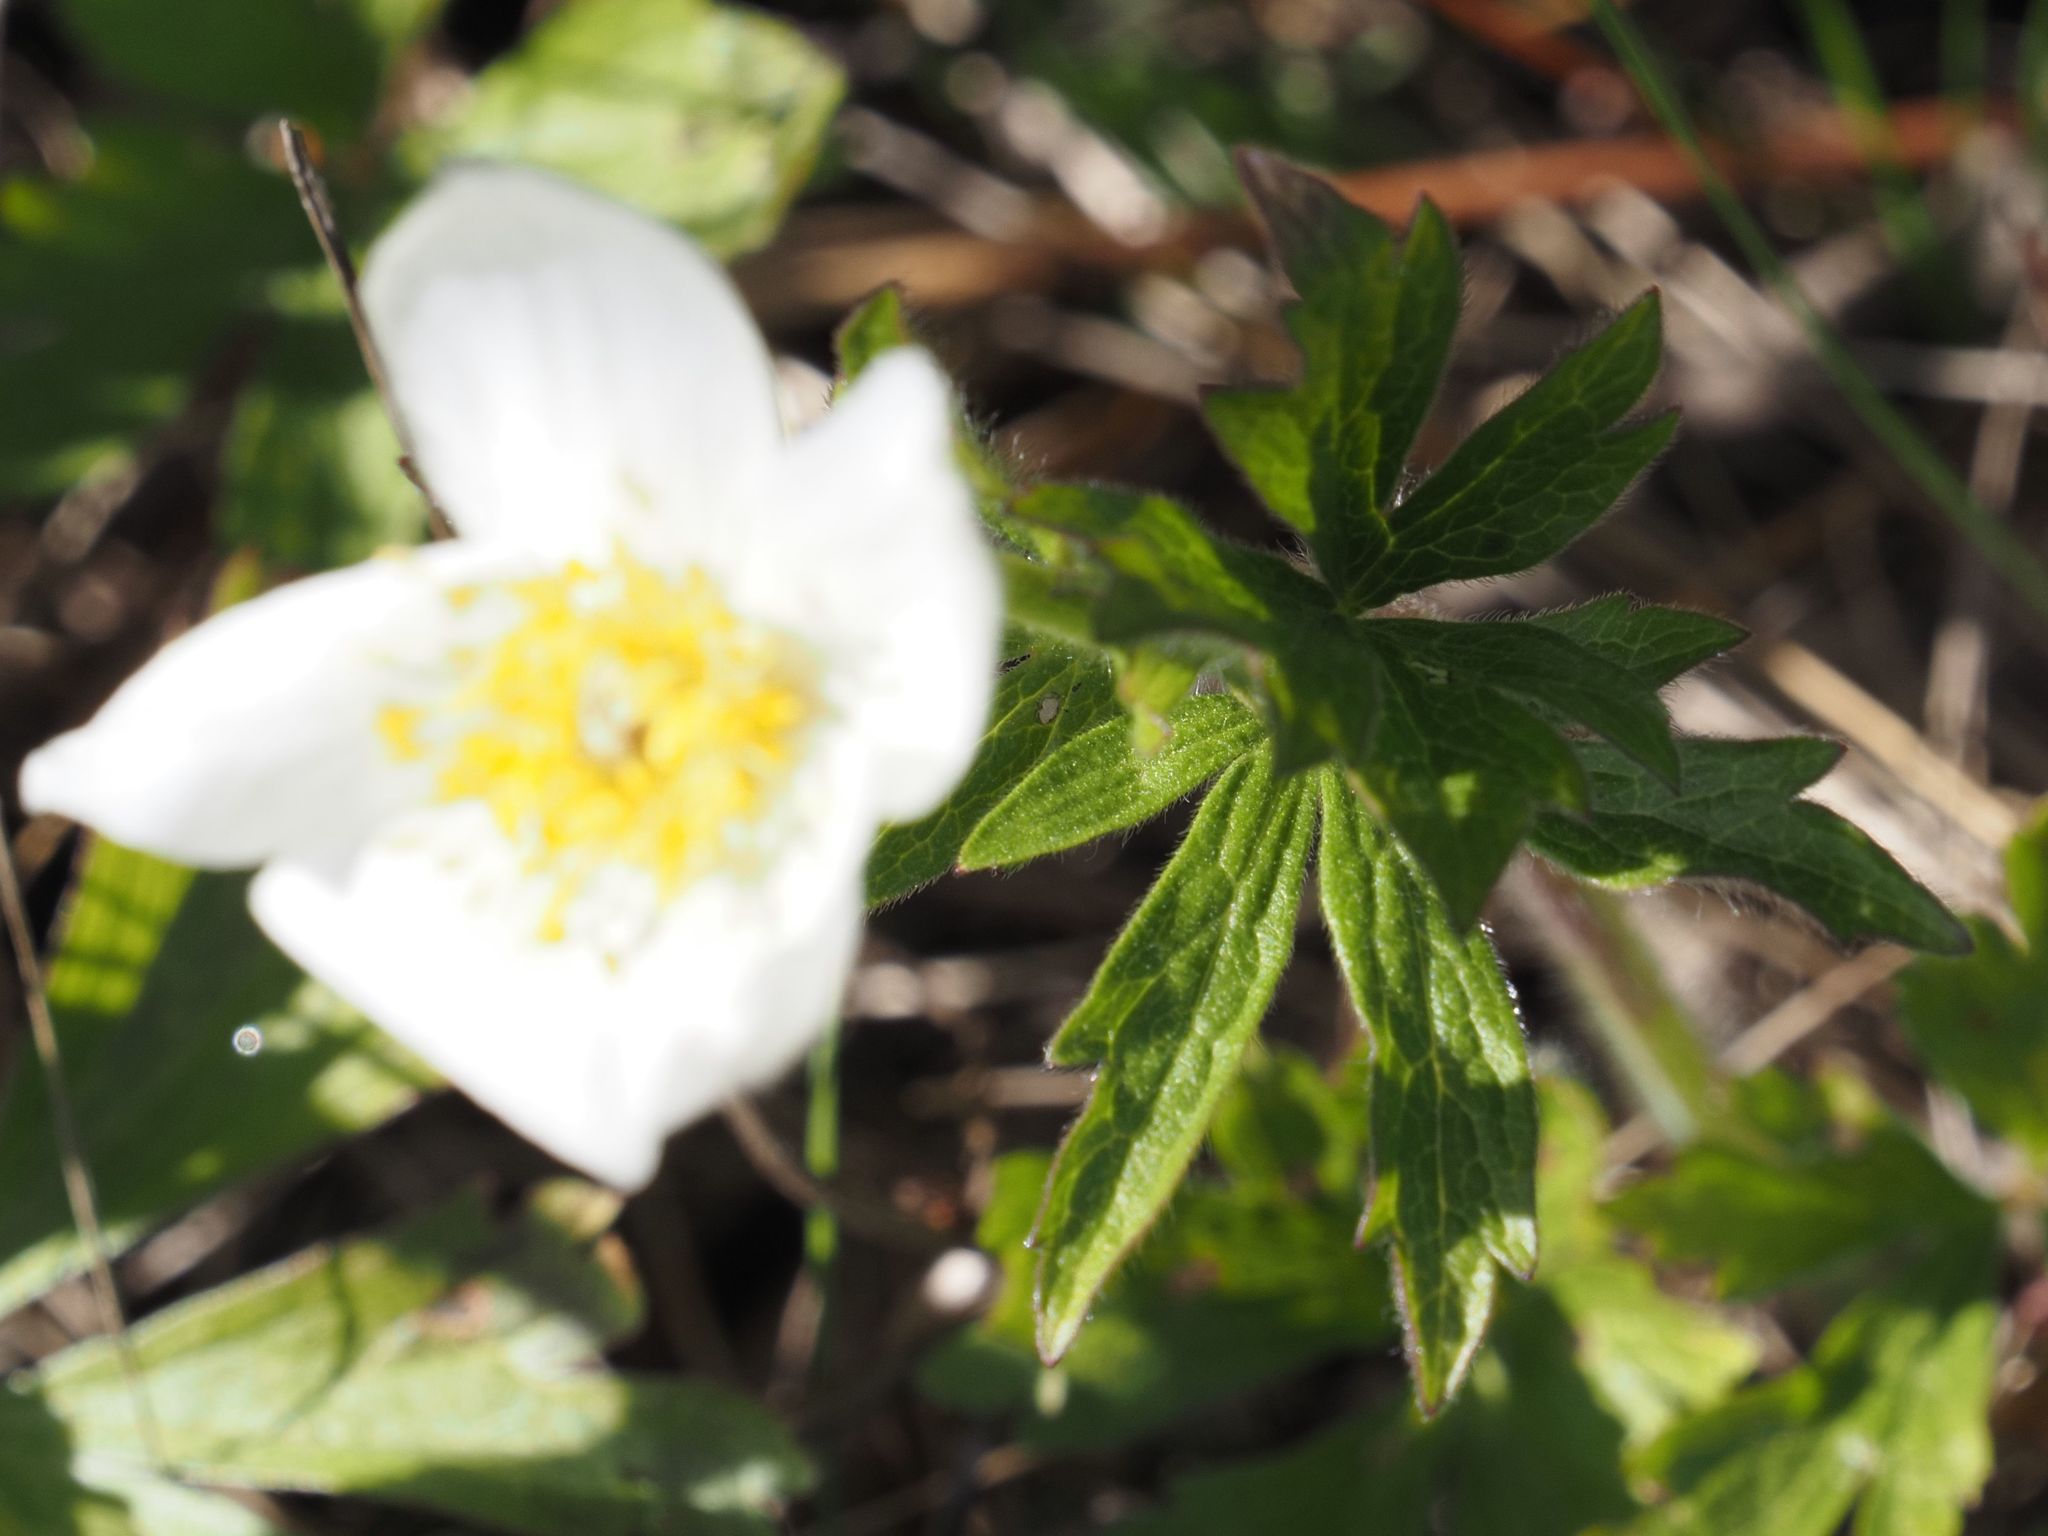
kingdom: Plantae
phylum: Tracheophyta
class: Magnoliopsida
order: Ranunculales
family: Ranunculaceae
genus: Anemone
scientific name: Anemone sylvestris
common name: Snowdrop anemone
